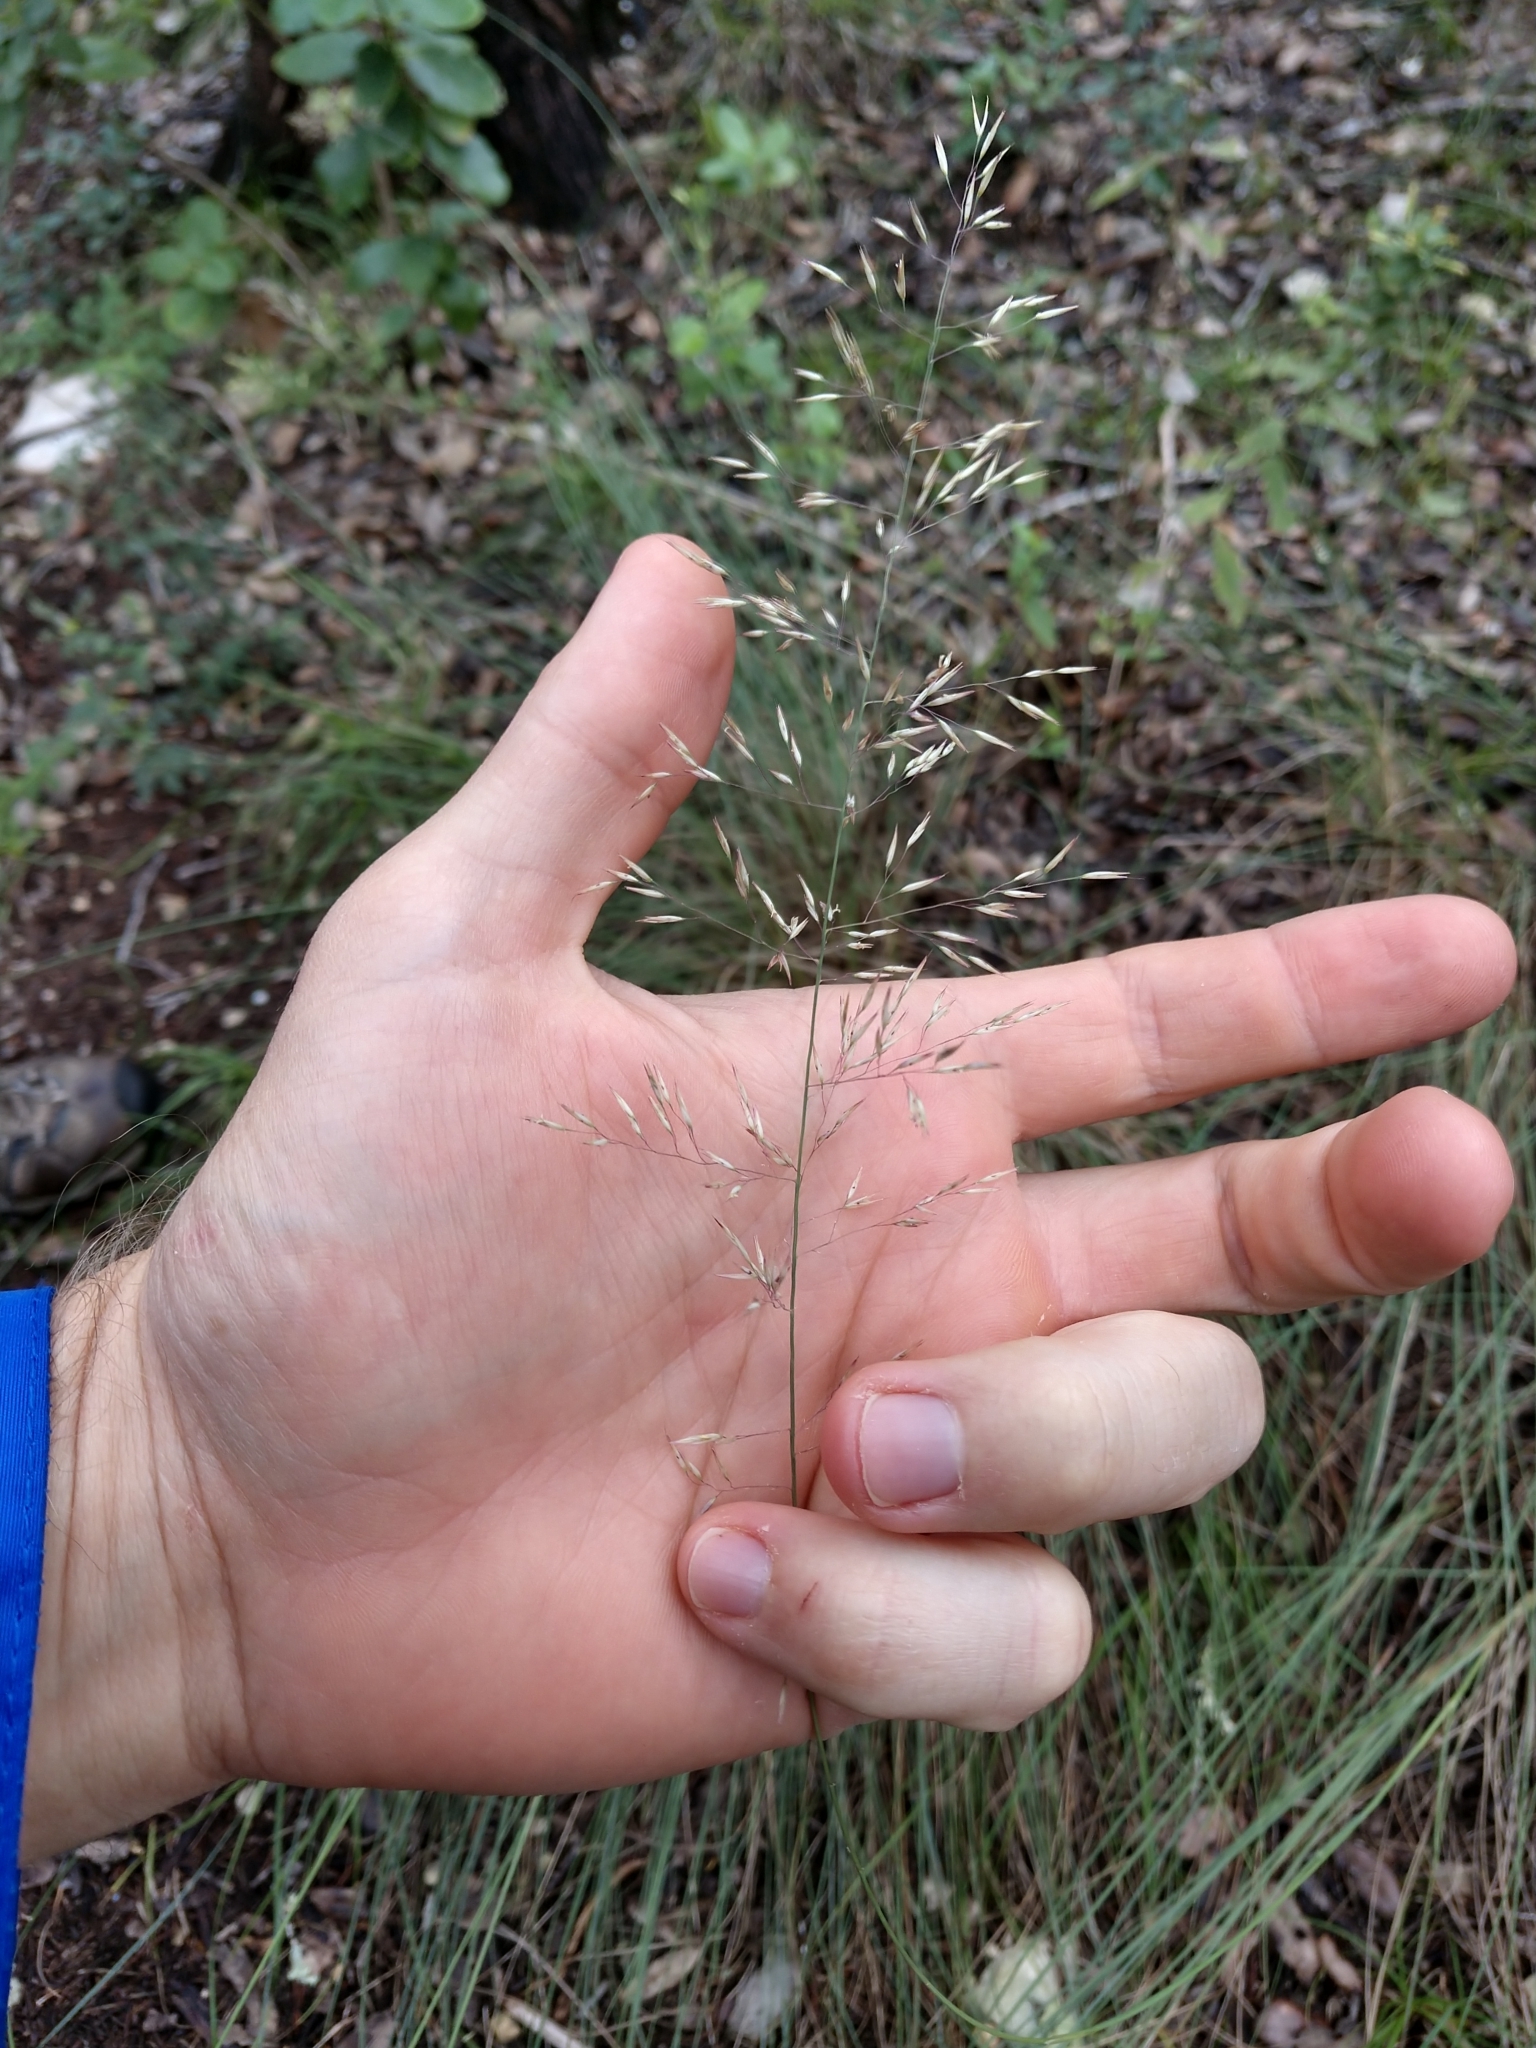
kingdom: Plantae
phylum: Tracheophyta
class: Liliopsida
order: Poales
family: Poaceae
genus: Muhlenbergia
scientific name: Muhlenbergia involuta
